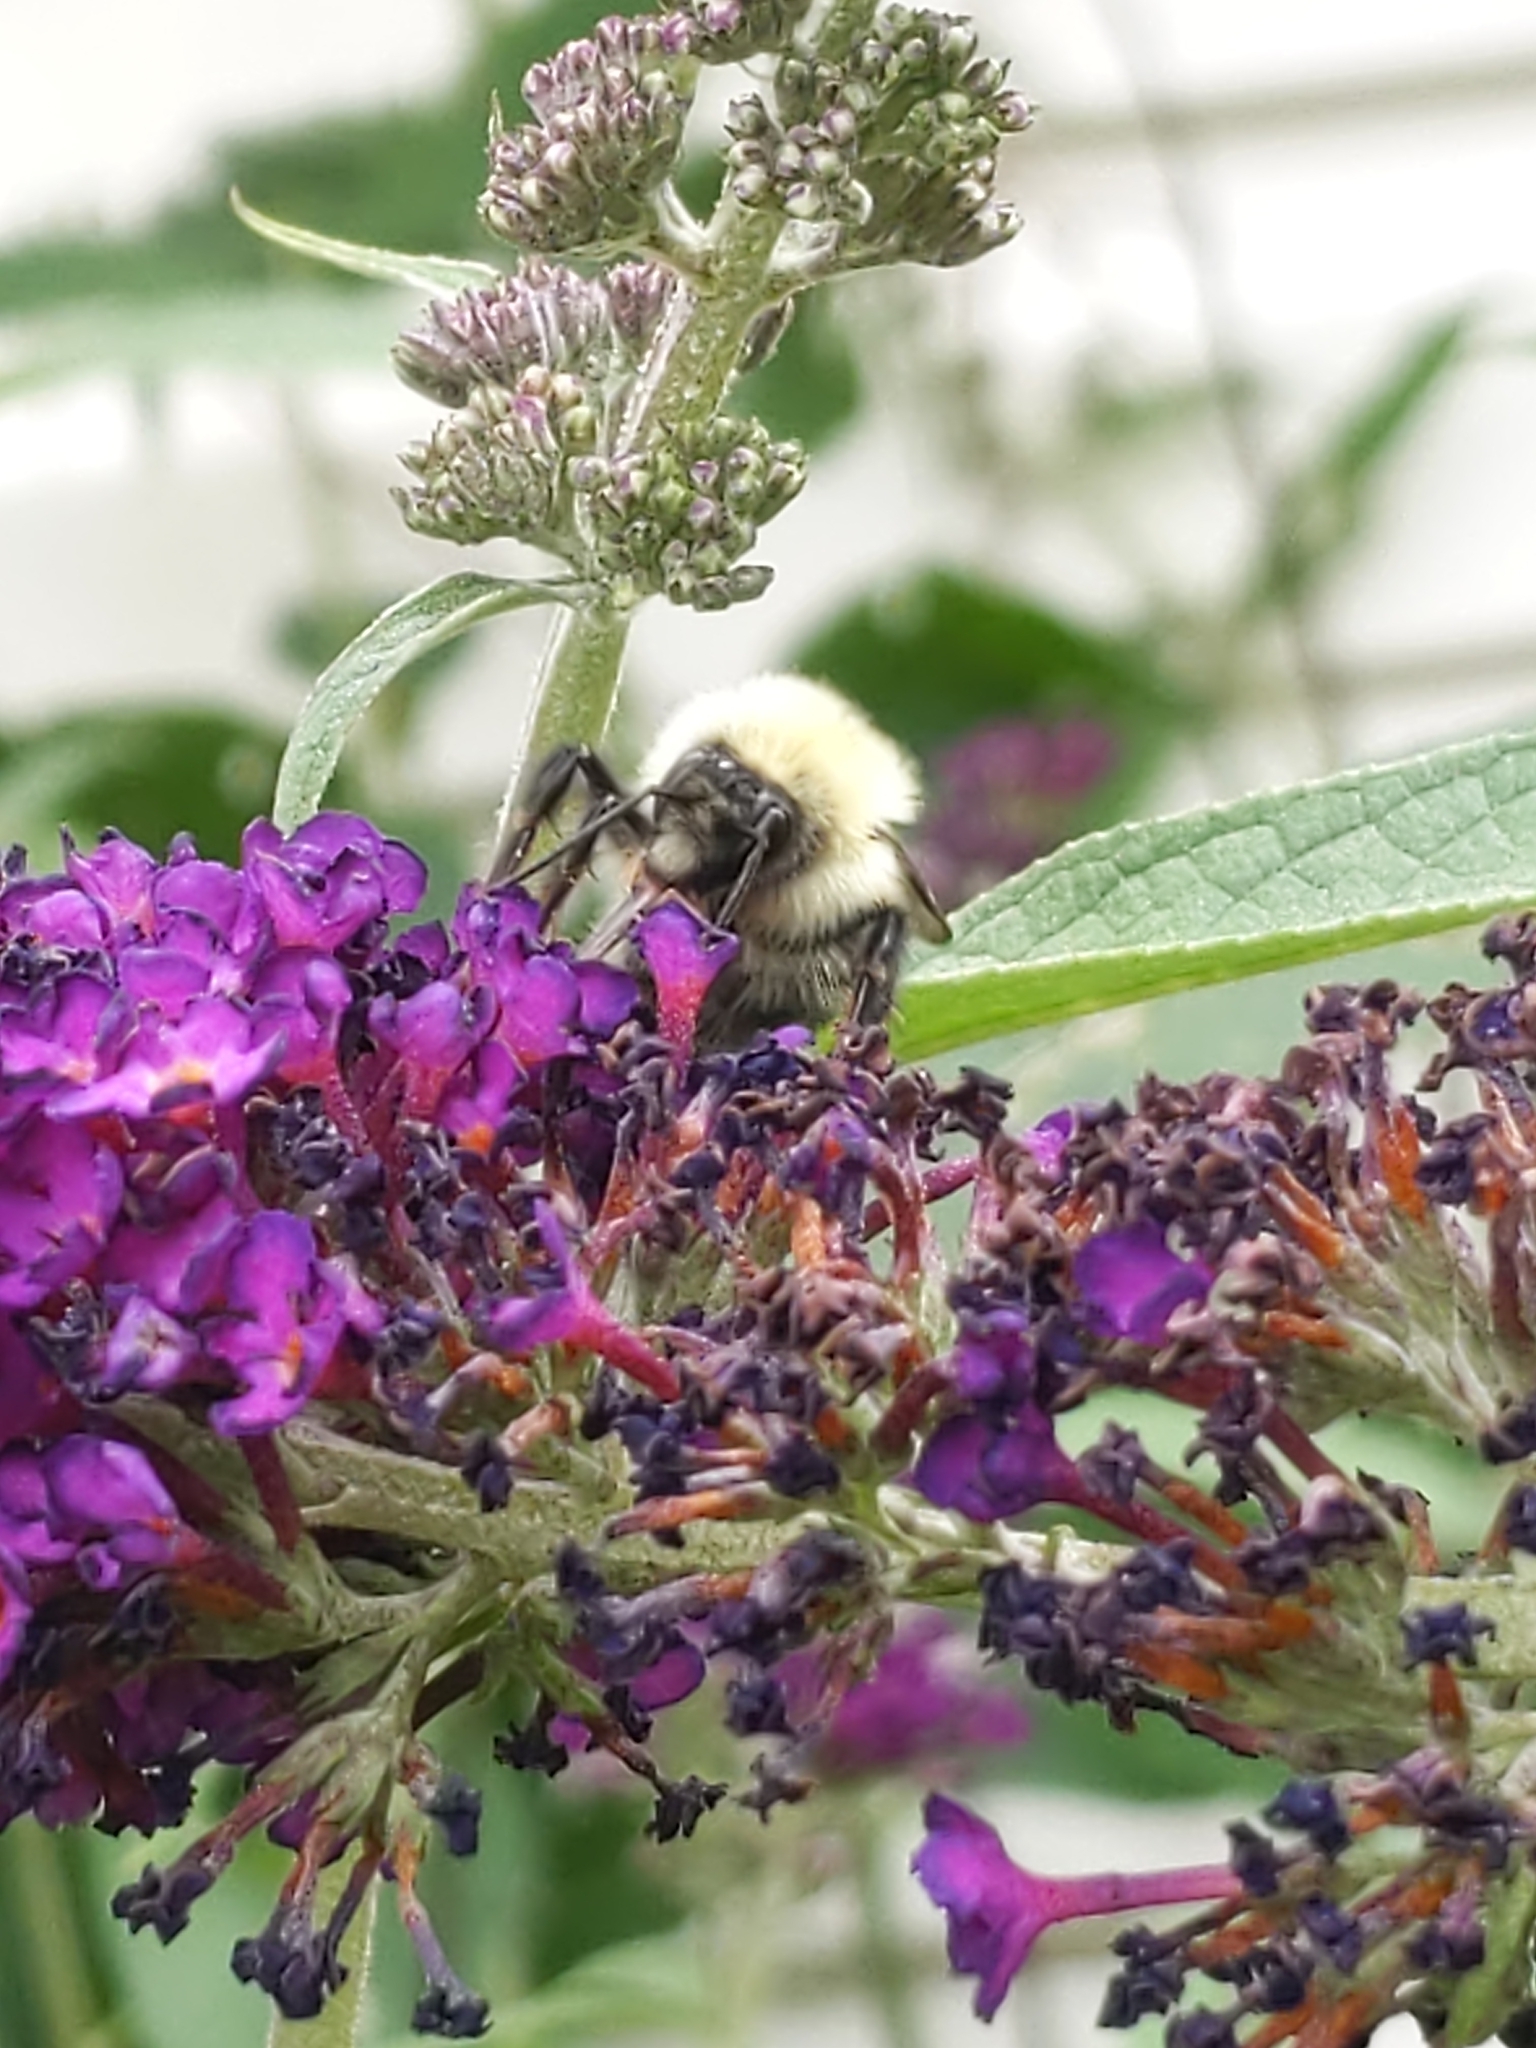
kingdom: Animalia
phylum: Arthropoda
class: Insecta
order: Hymenoptera
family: Apidae
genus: Bombus
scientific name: Bombus bimaculatus
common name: Two-spotted bumble bee
